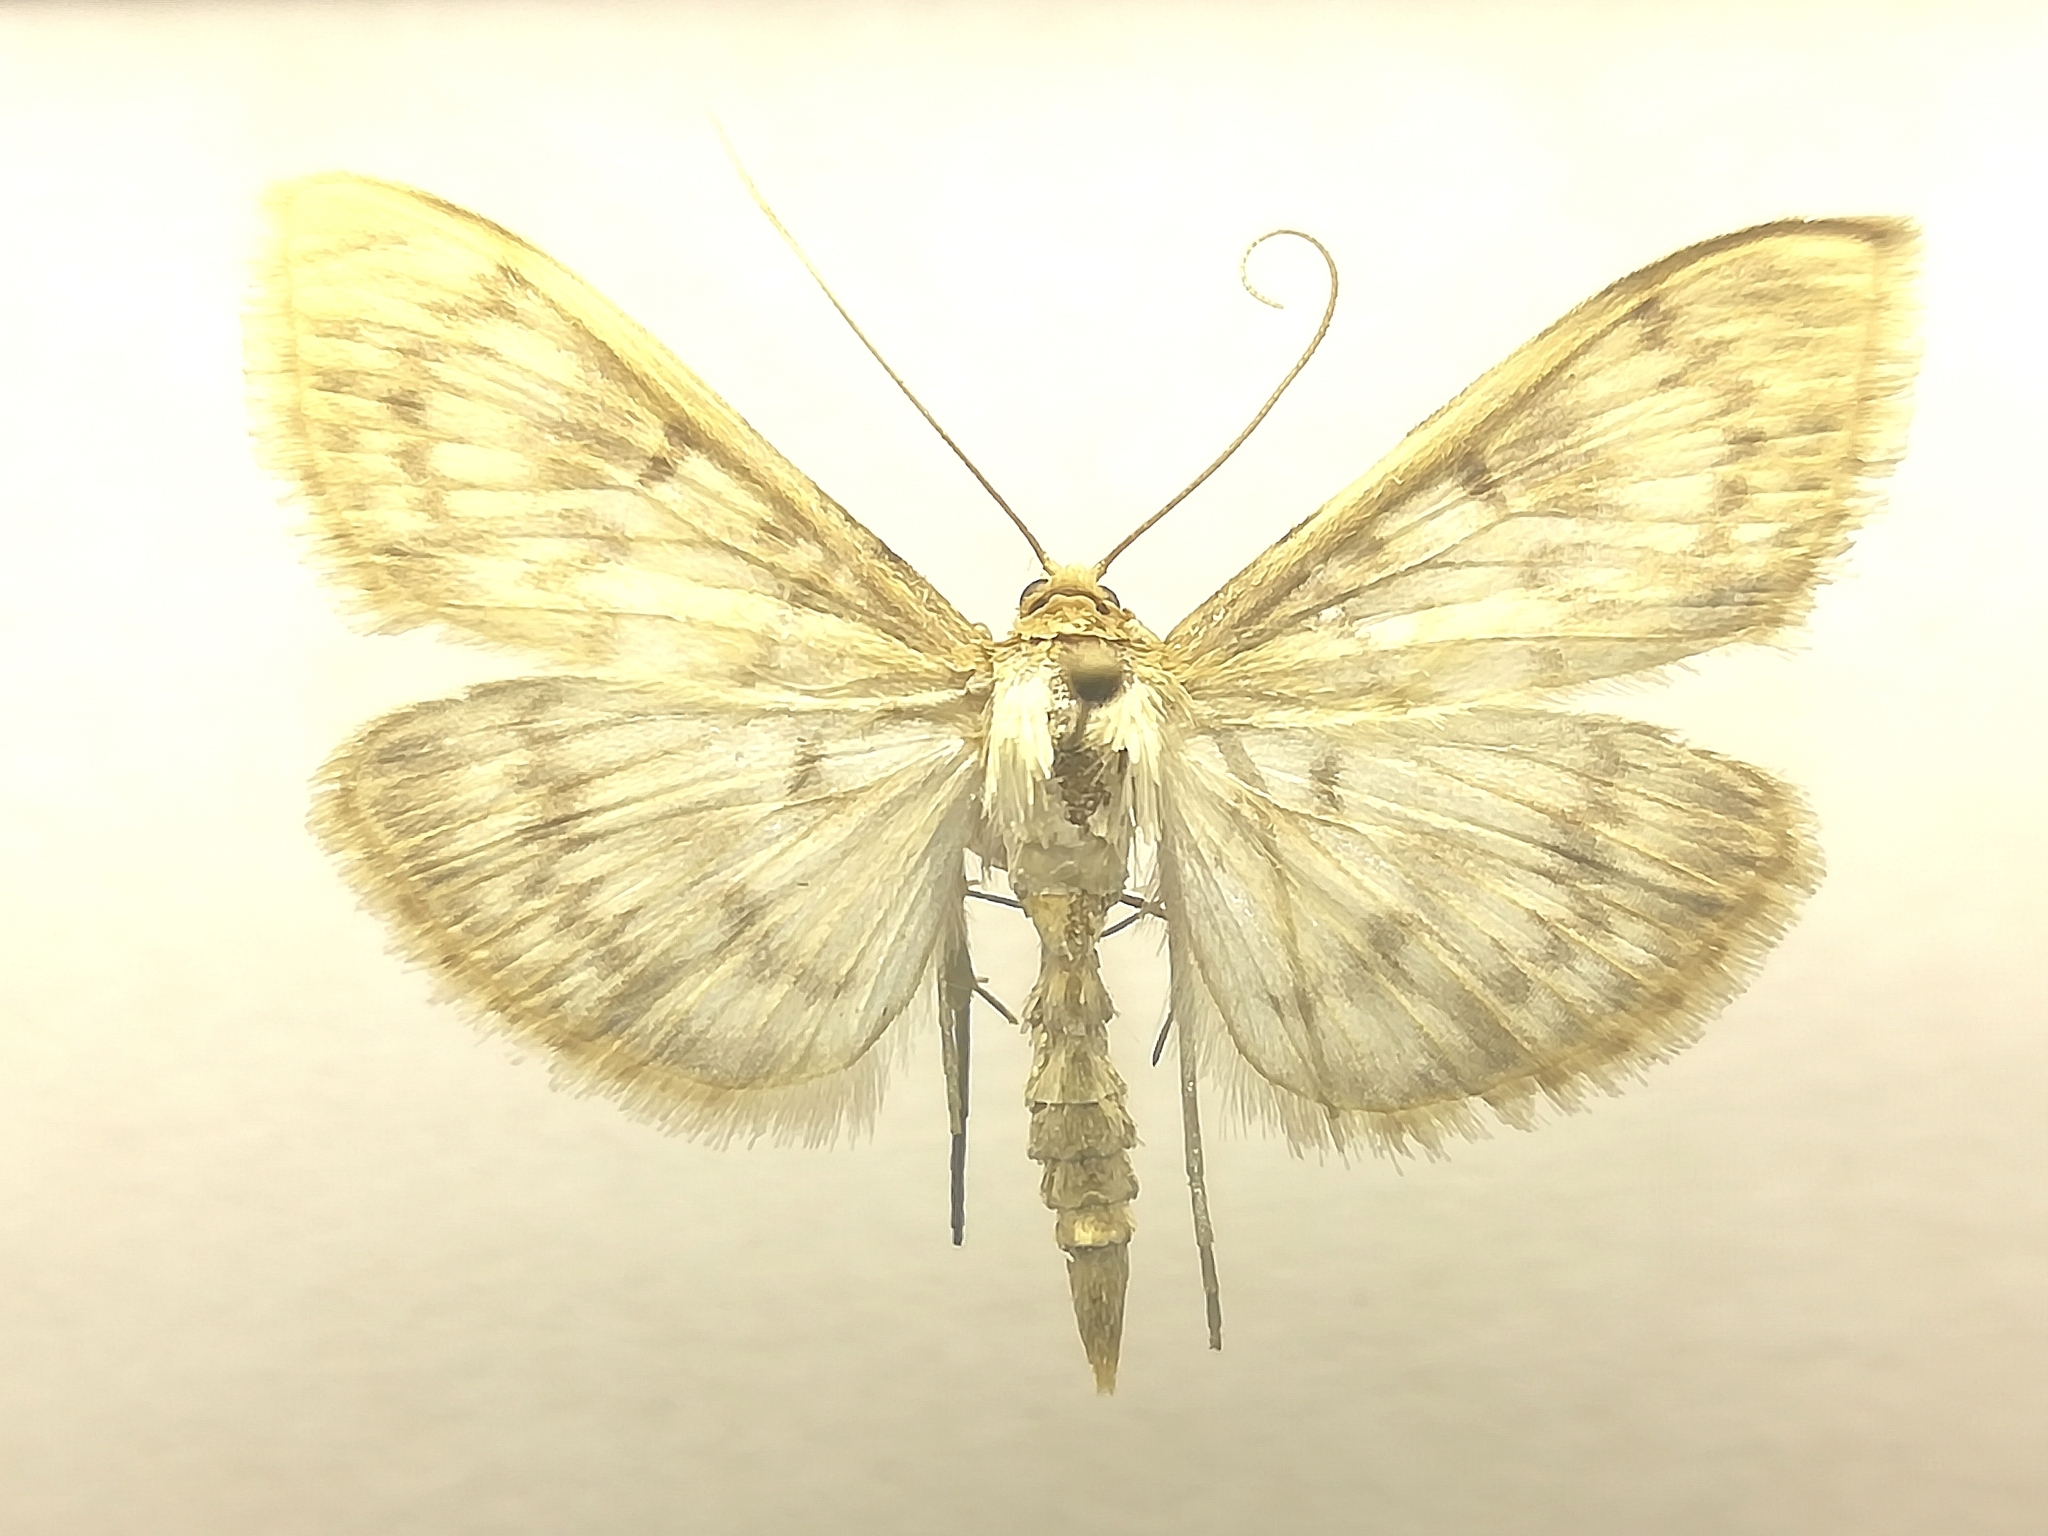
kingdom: Animalia
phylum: Arthropoda
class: Insecta
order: Lepidoptera
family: Crambidae
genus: Patania
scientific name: Patania ruralis
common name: Mother of pearl
